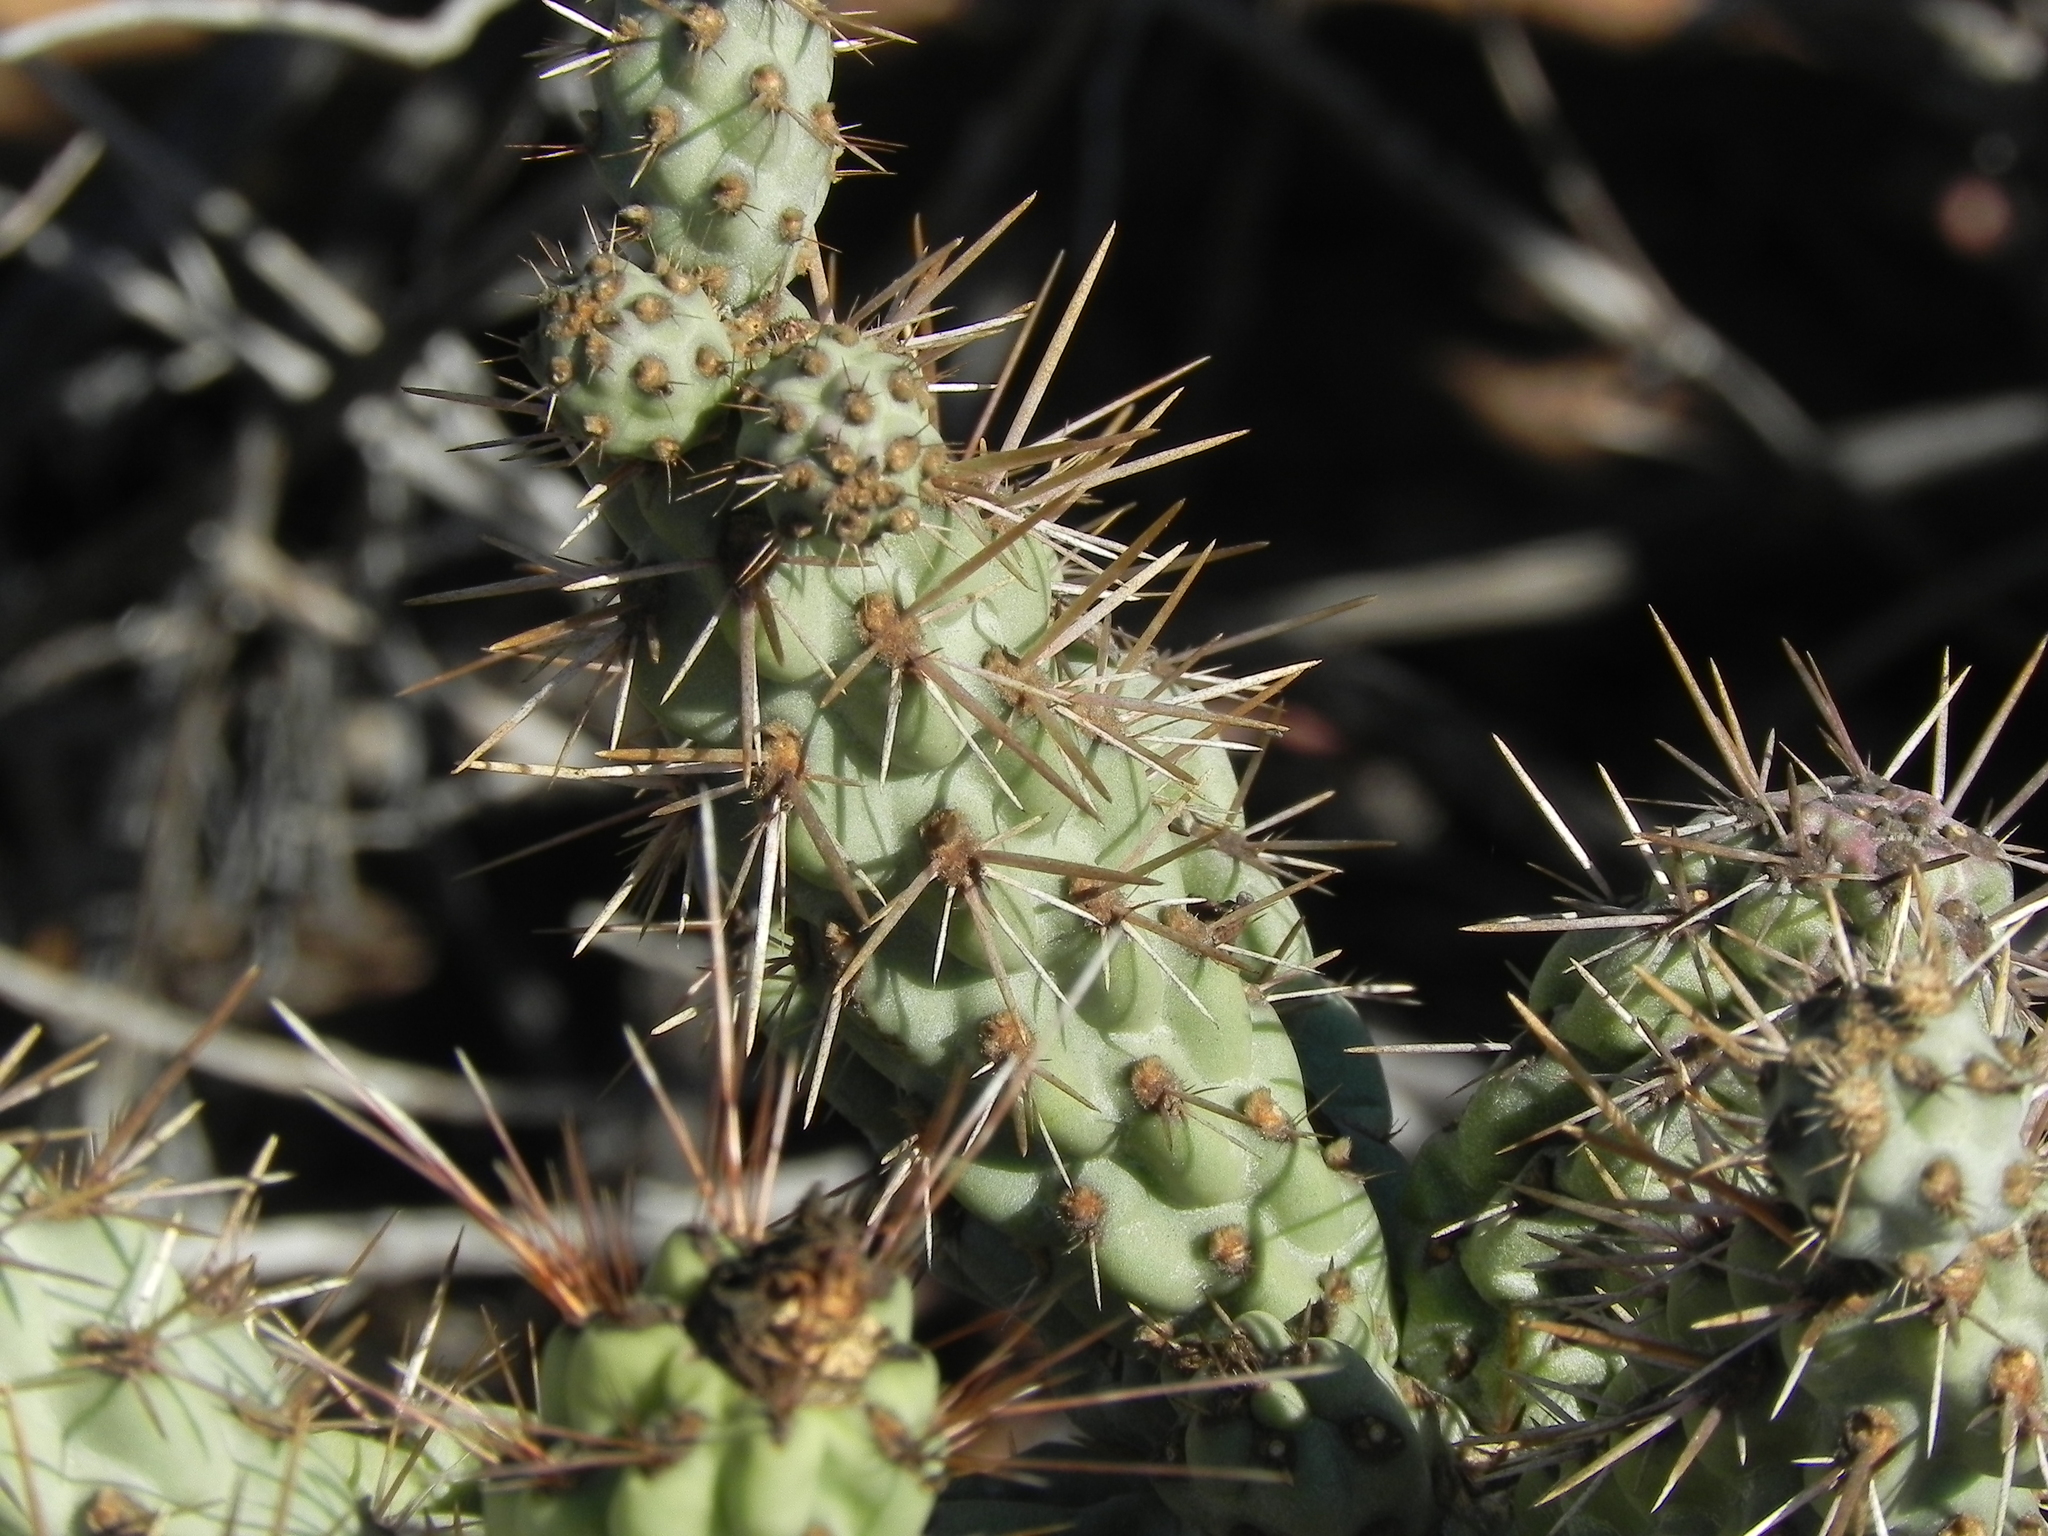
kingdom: Plantae
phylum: Tracheophyta
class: Magnoliopsida
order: Caryophyllales
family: Cactaceae
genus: Cylindropuntia
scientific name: Cylindropuntia prolifera
